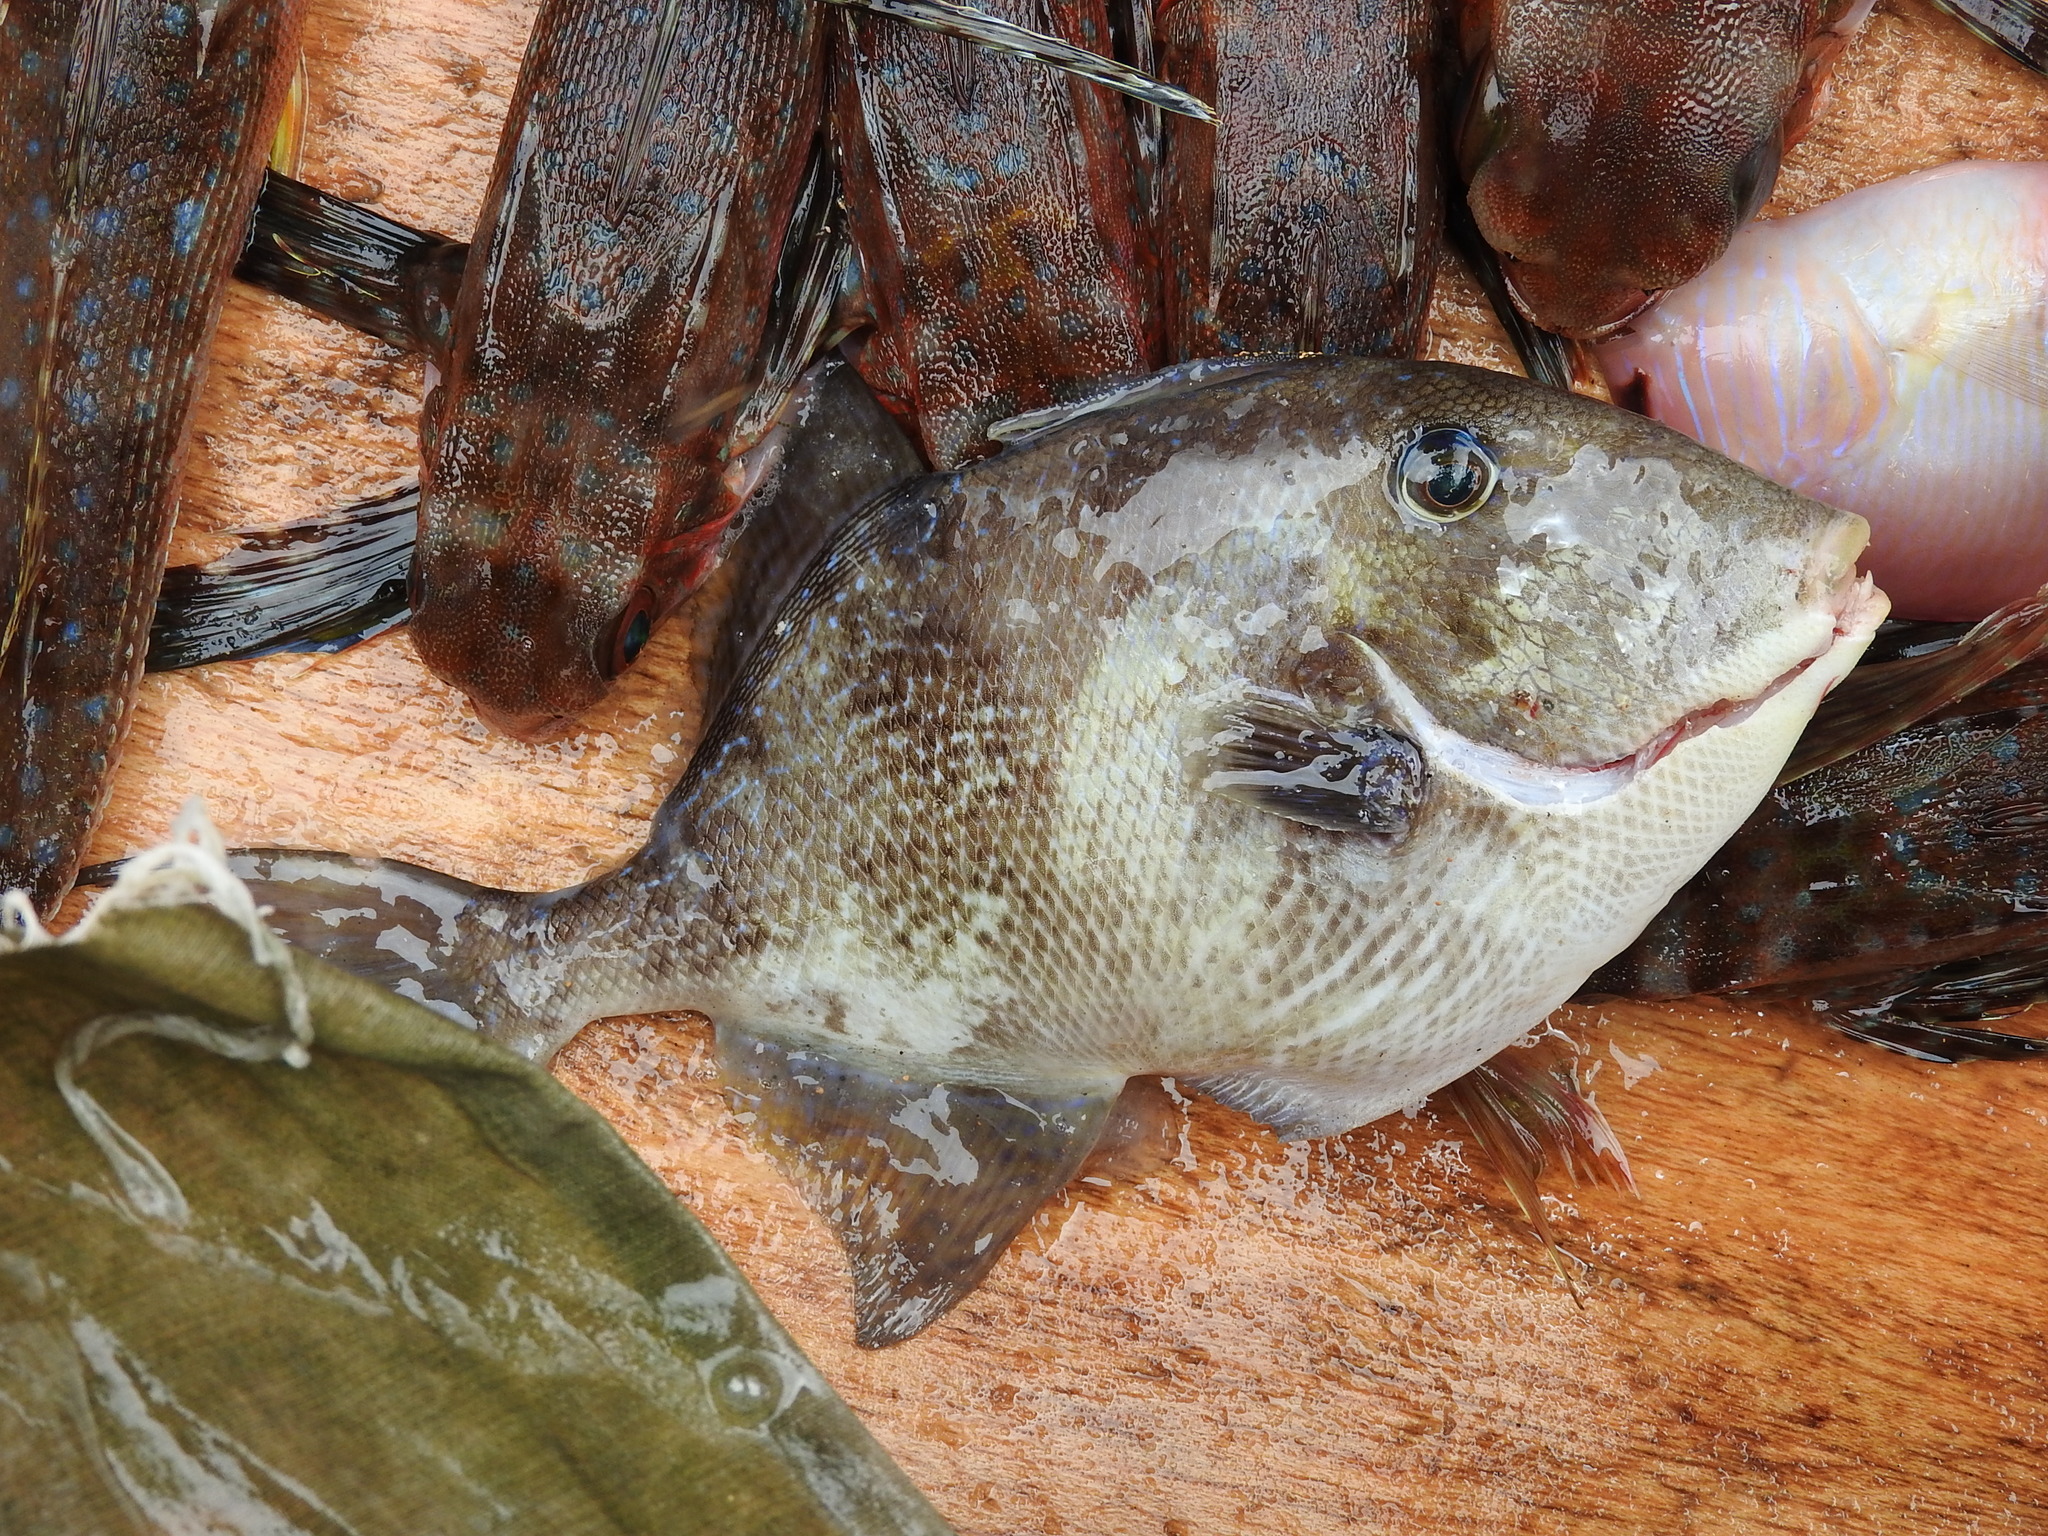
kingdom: Animalia
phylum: Chordata
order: Tetraodontiformes
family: Balistidae
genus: Balistes
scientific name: Balistes capriscus
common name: Grey triggerfish
